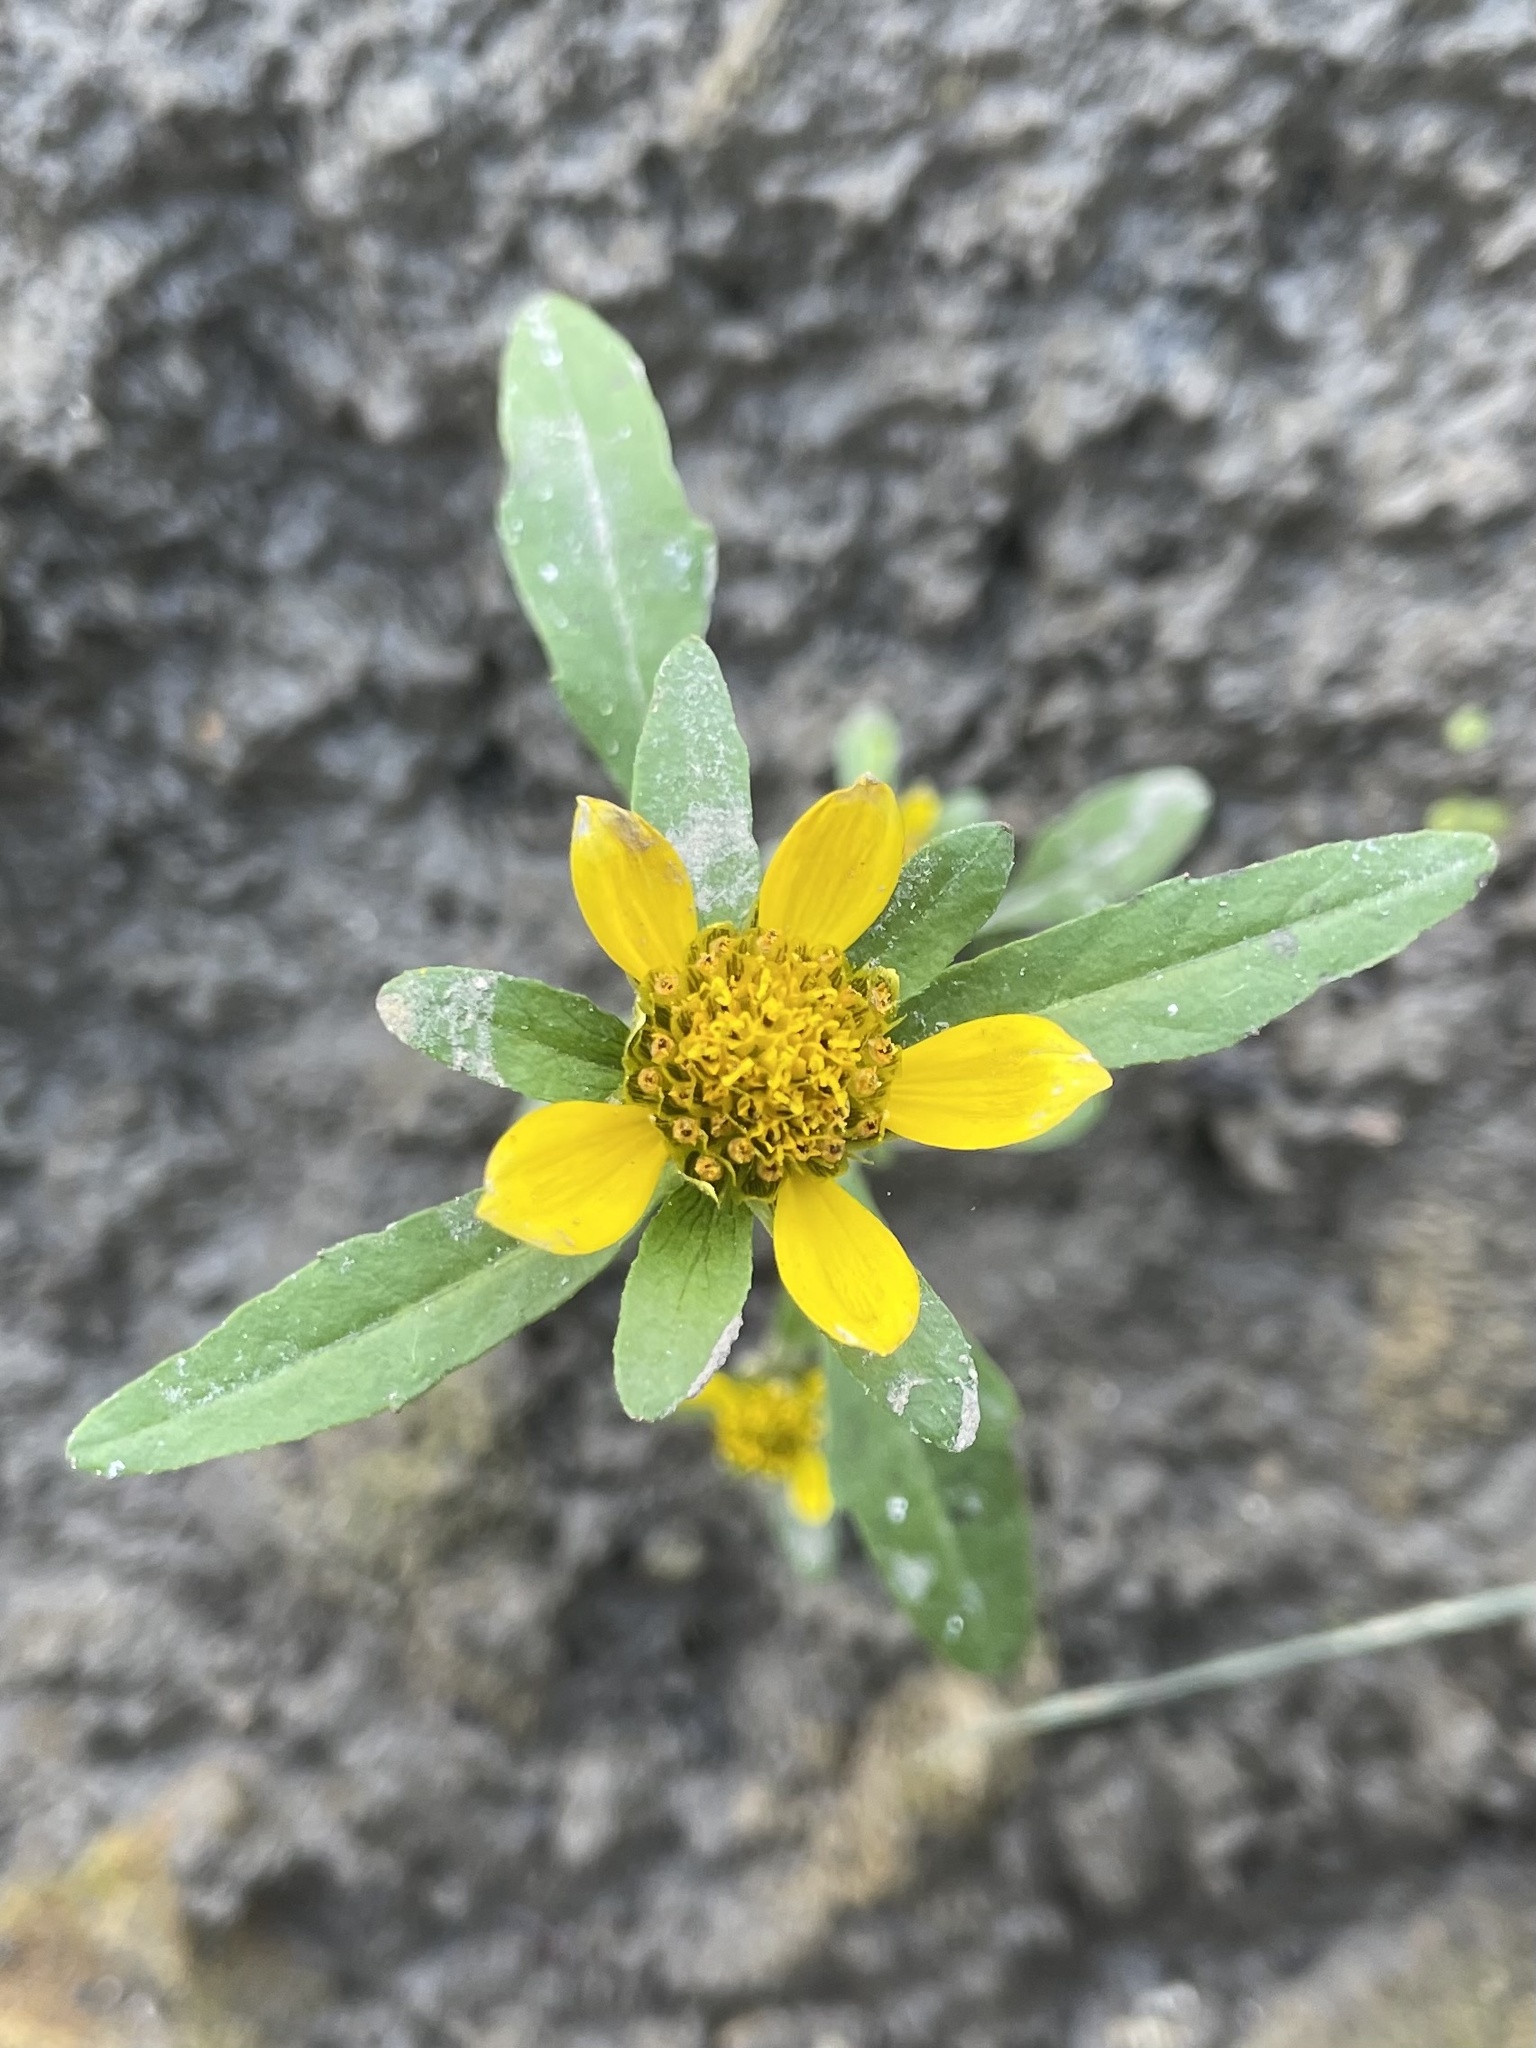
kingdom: Plantae
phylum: Tracheophyta
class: Magnoliopsida
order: Asterales
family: Asteraceae
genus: Bidens
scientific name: Bidens cernua
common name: Nodding bur-marigold
